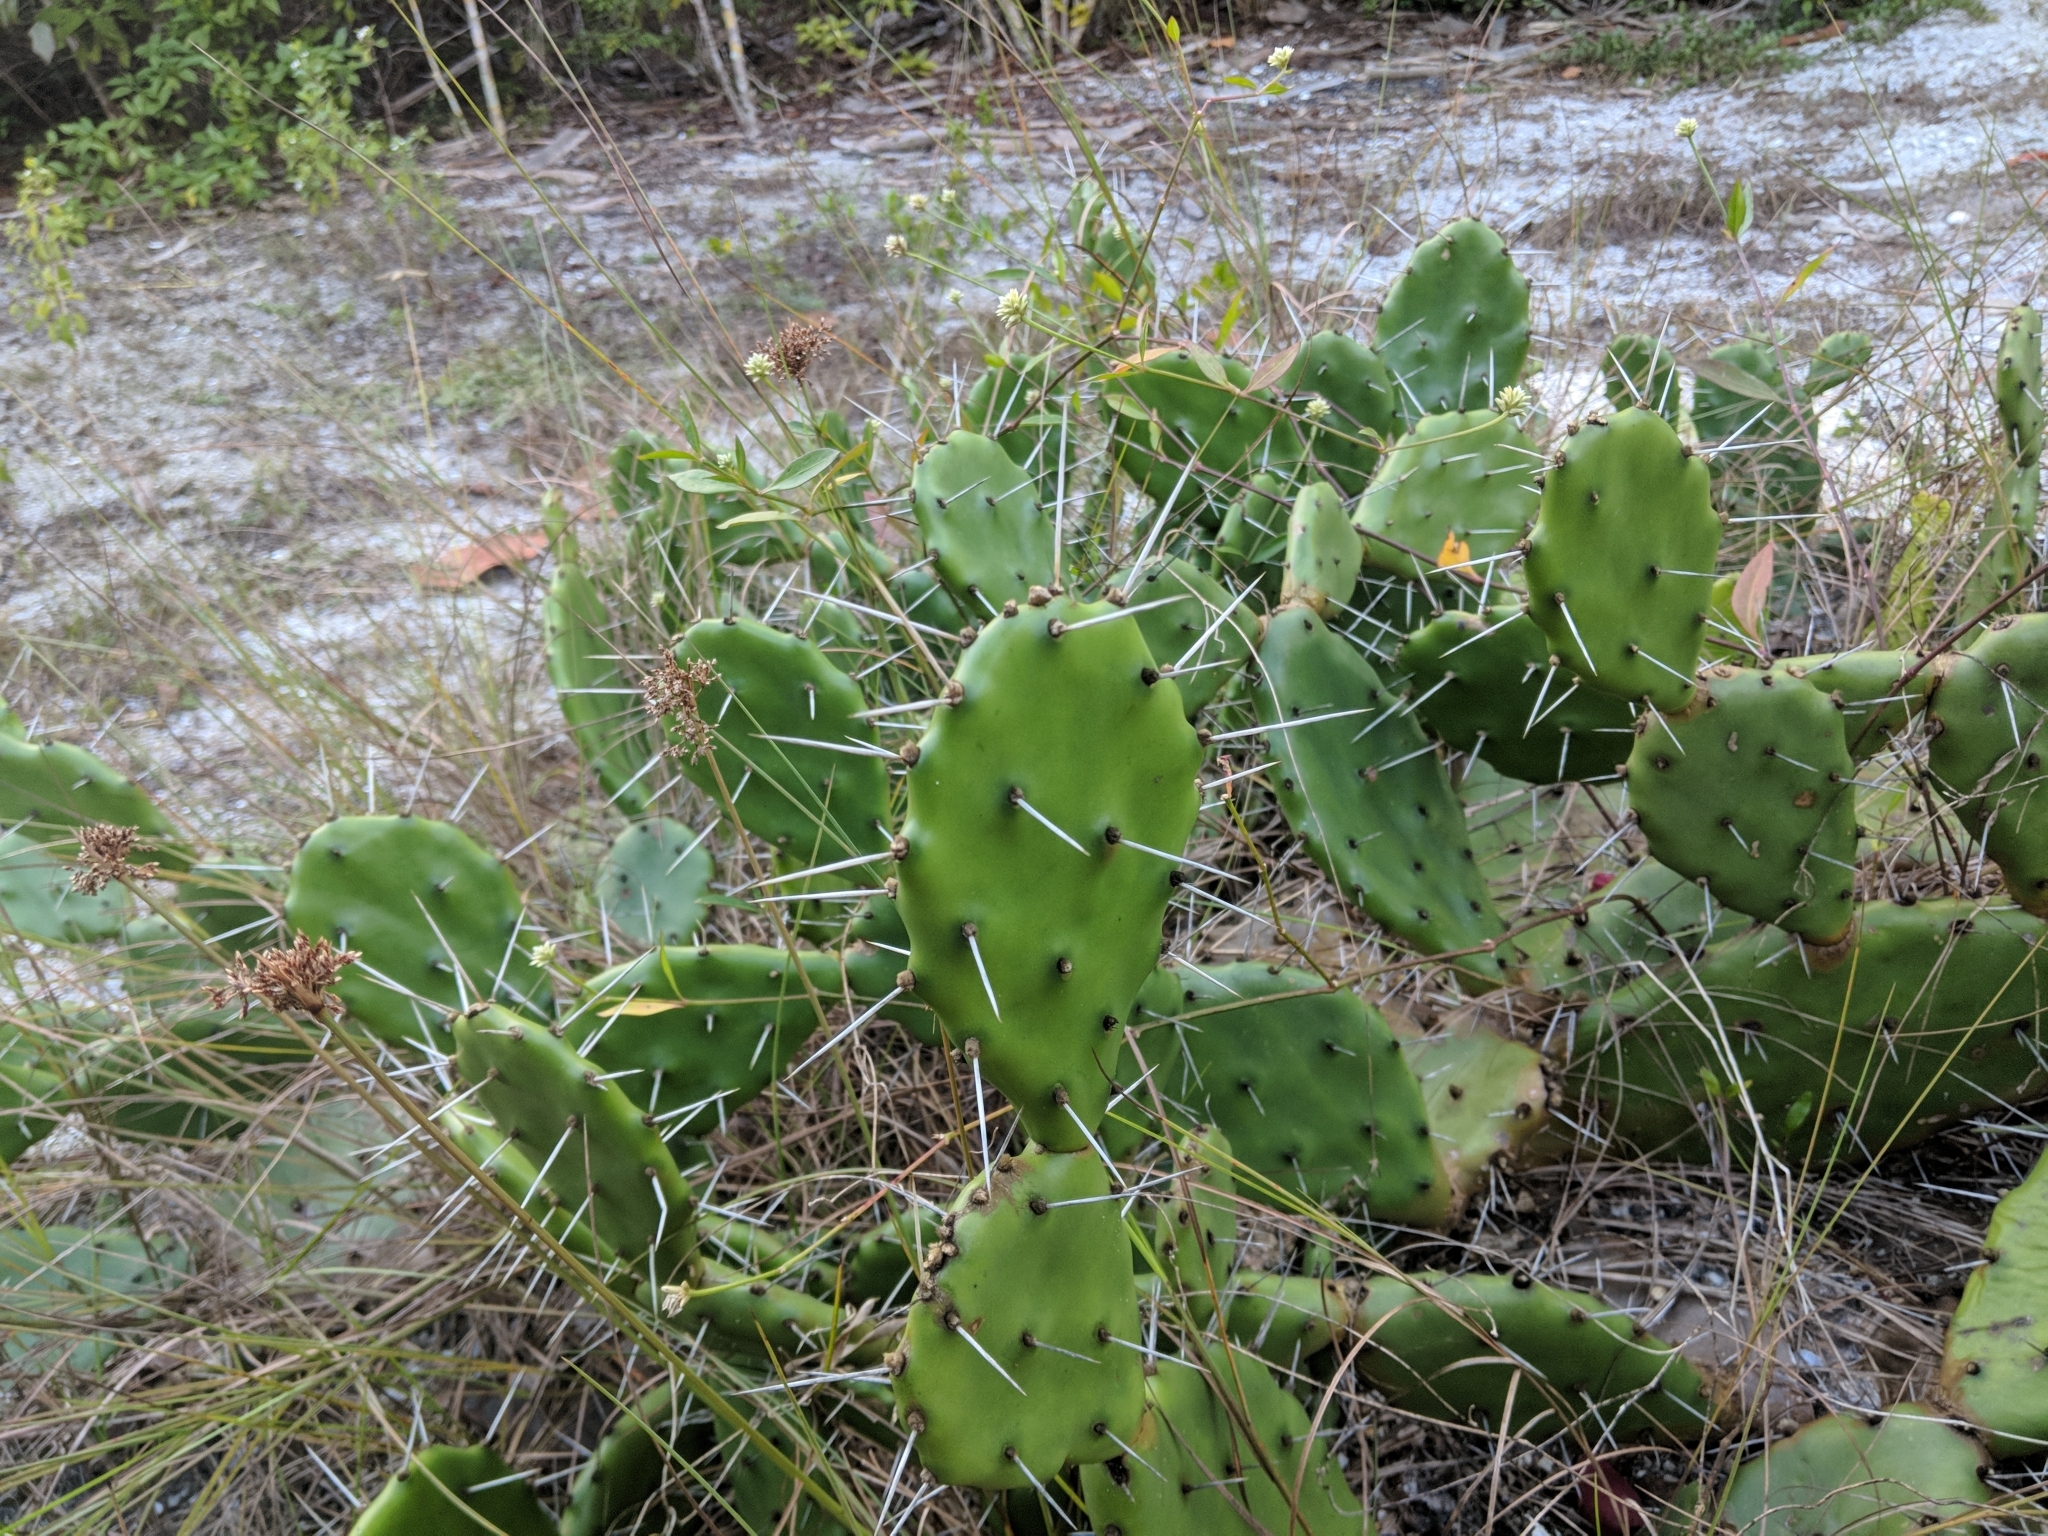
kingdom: Plantae
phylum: Tracheophyta
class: Magnoliopsida
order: Caryophyllales
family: Cactaceae
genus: Opuntia
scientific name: Opuntia austrina
